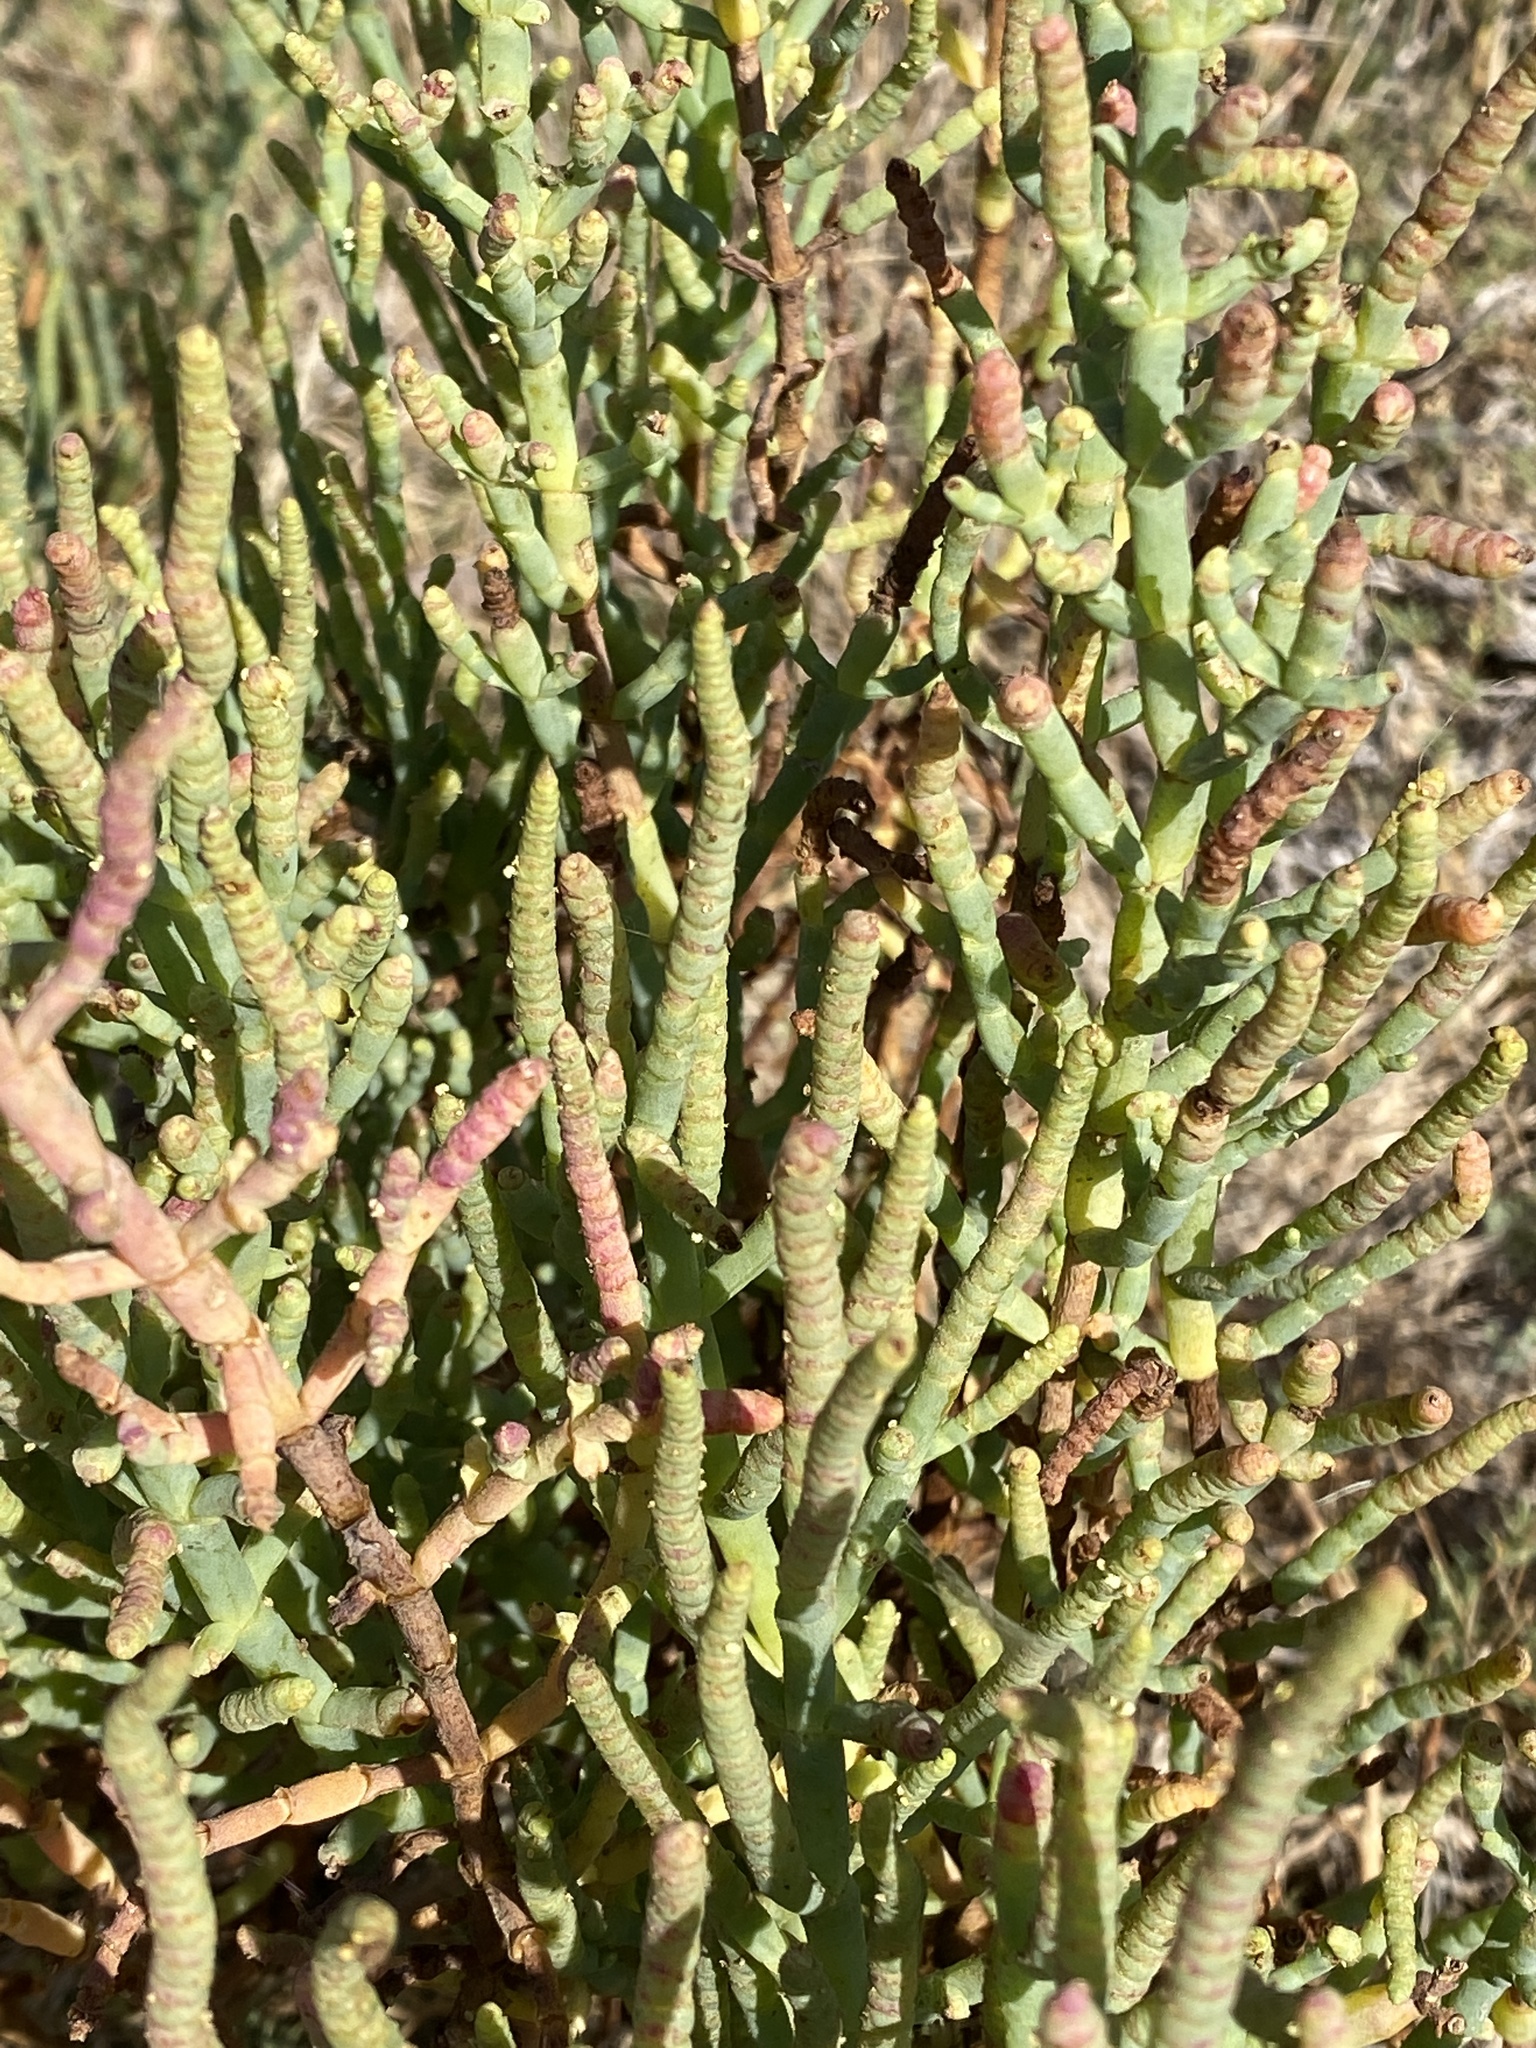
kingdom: Plantae
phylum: Tracheophyta
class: Magnoliopsida
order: Caryophyllales
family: Amaranthaceae
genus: Salicornia
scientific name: Salicornia pacifica
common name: Pacific glasswort
